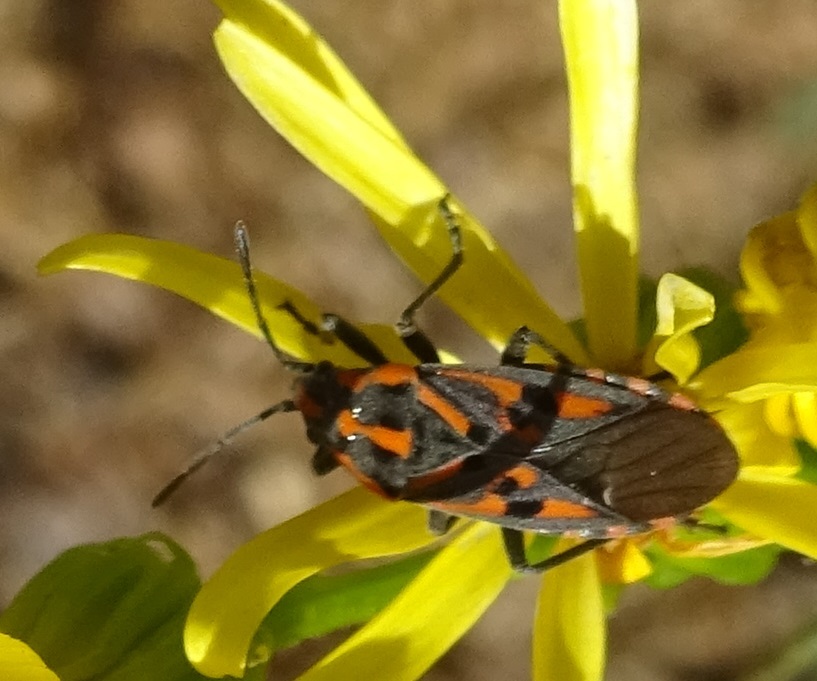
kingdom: Animalia
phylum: Arthropoda
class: Insecta
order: Hemiptera
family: Lygaeidae
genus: Spilostethus
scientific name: Spilostethus saxatilis
